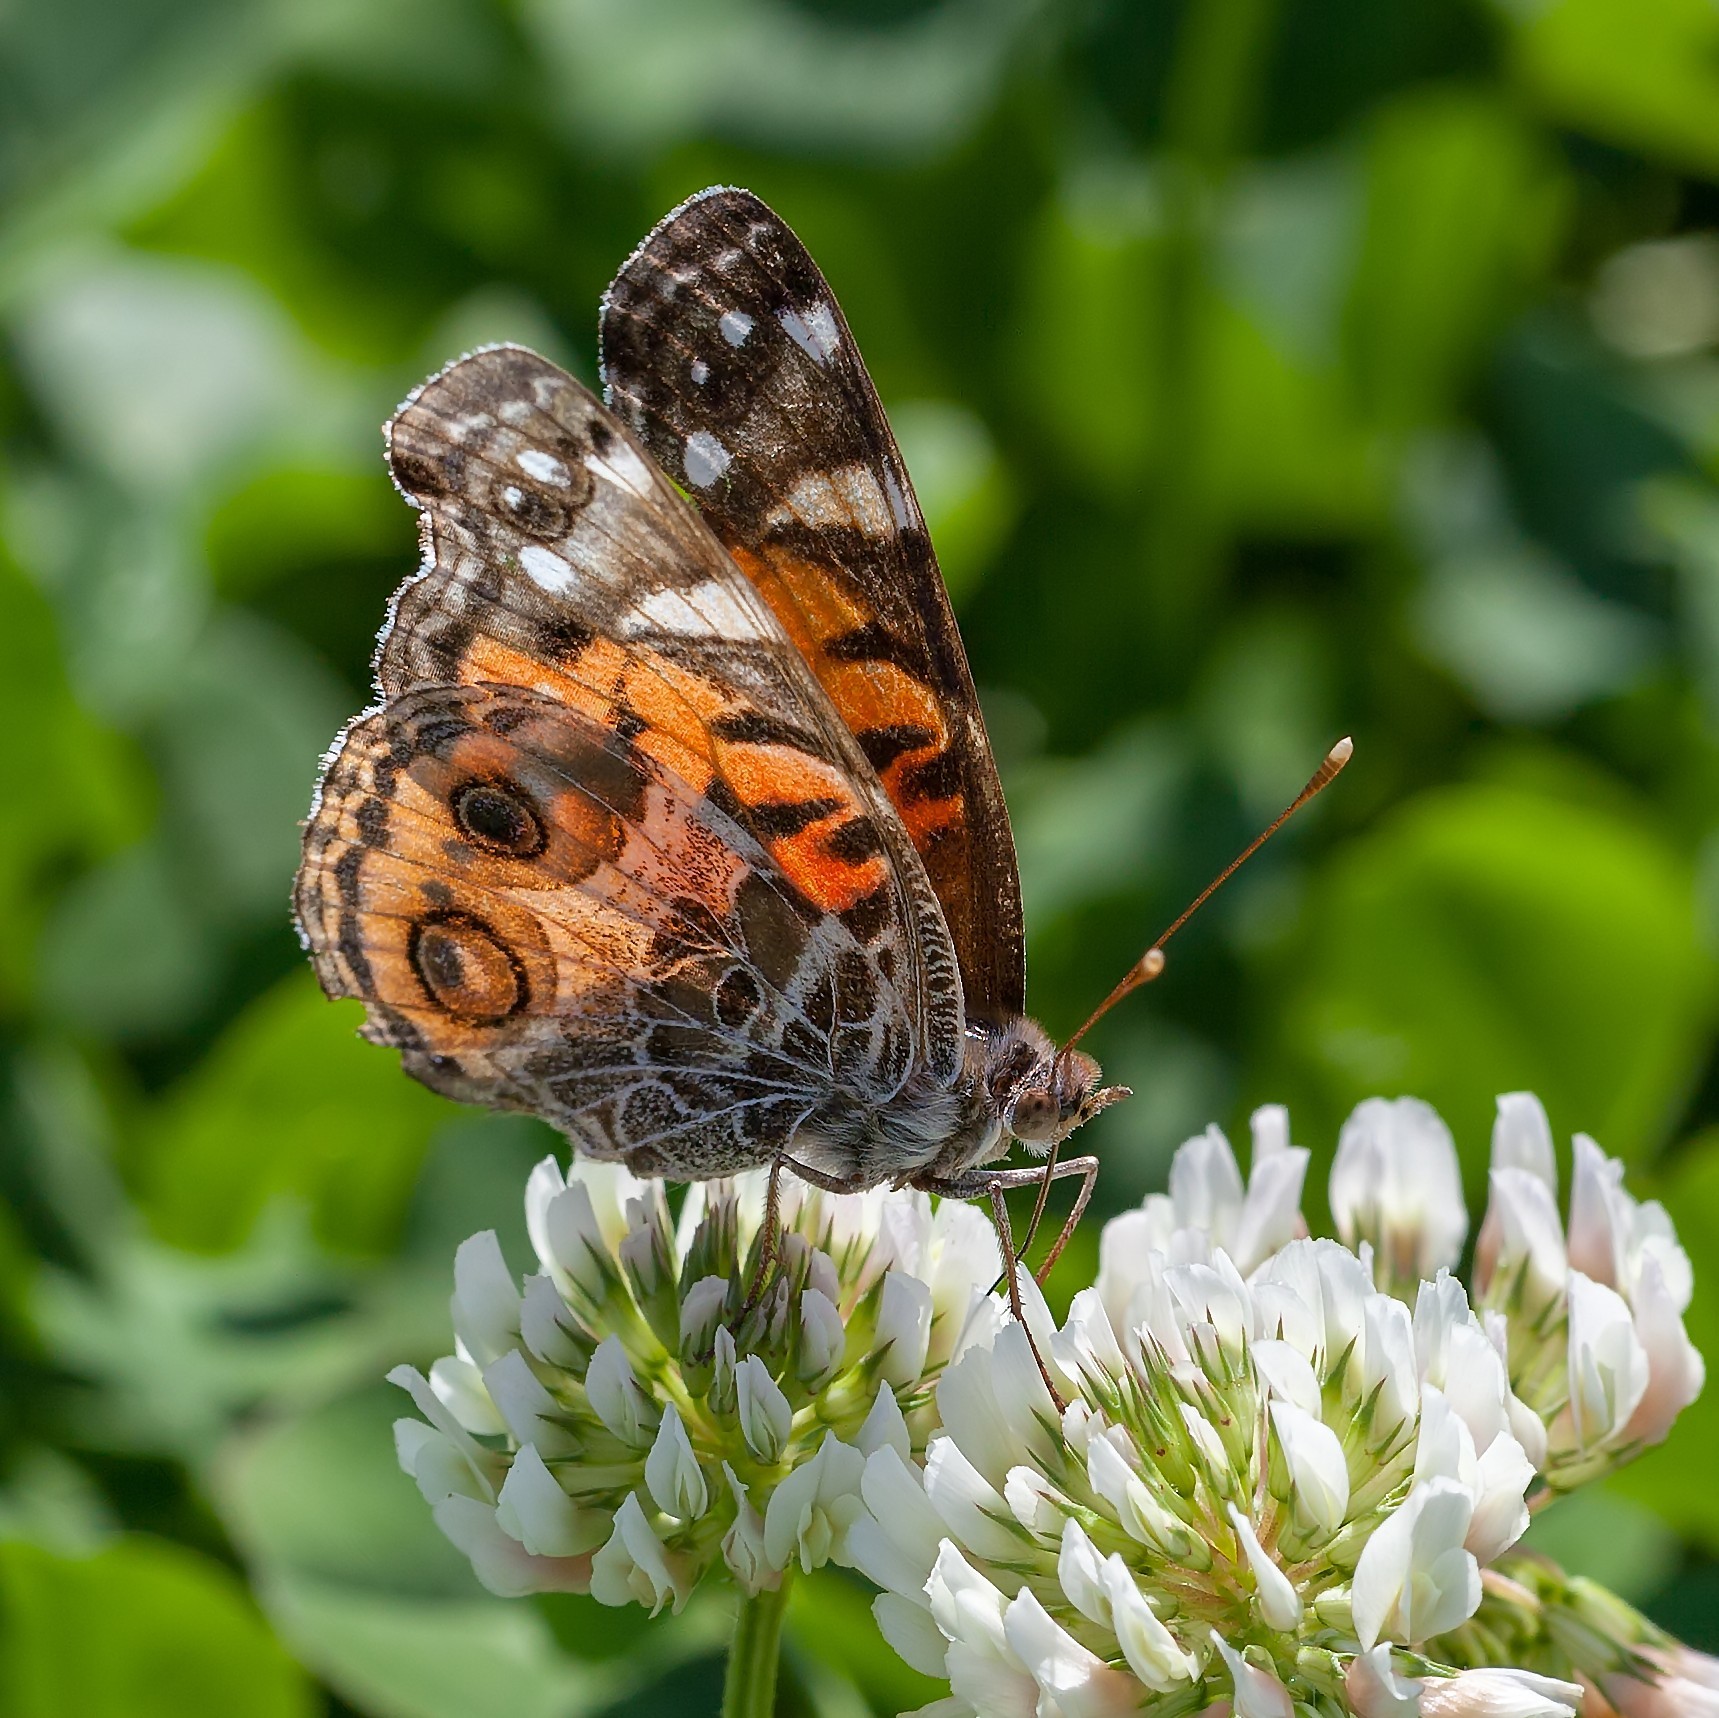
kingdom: Animalia
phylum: Arthropoda
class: Insecta
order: Lepidoptera
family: Nymphalidae
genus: Vanessa
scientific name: Vanessa virginiensis
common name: American lady
